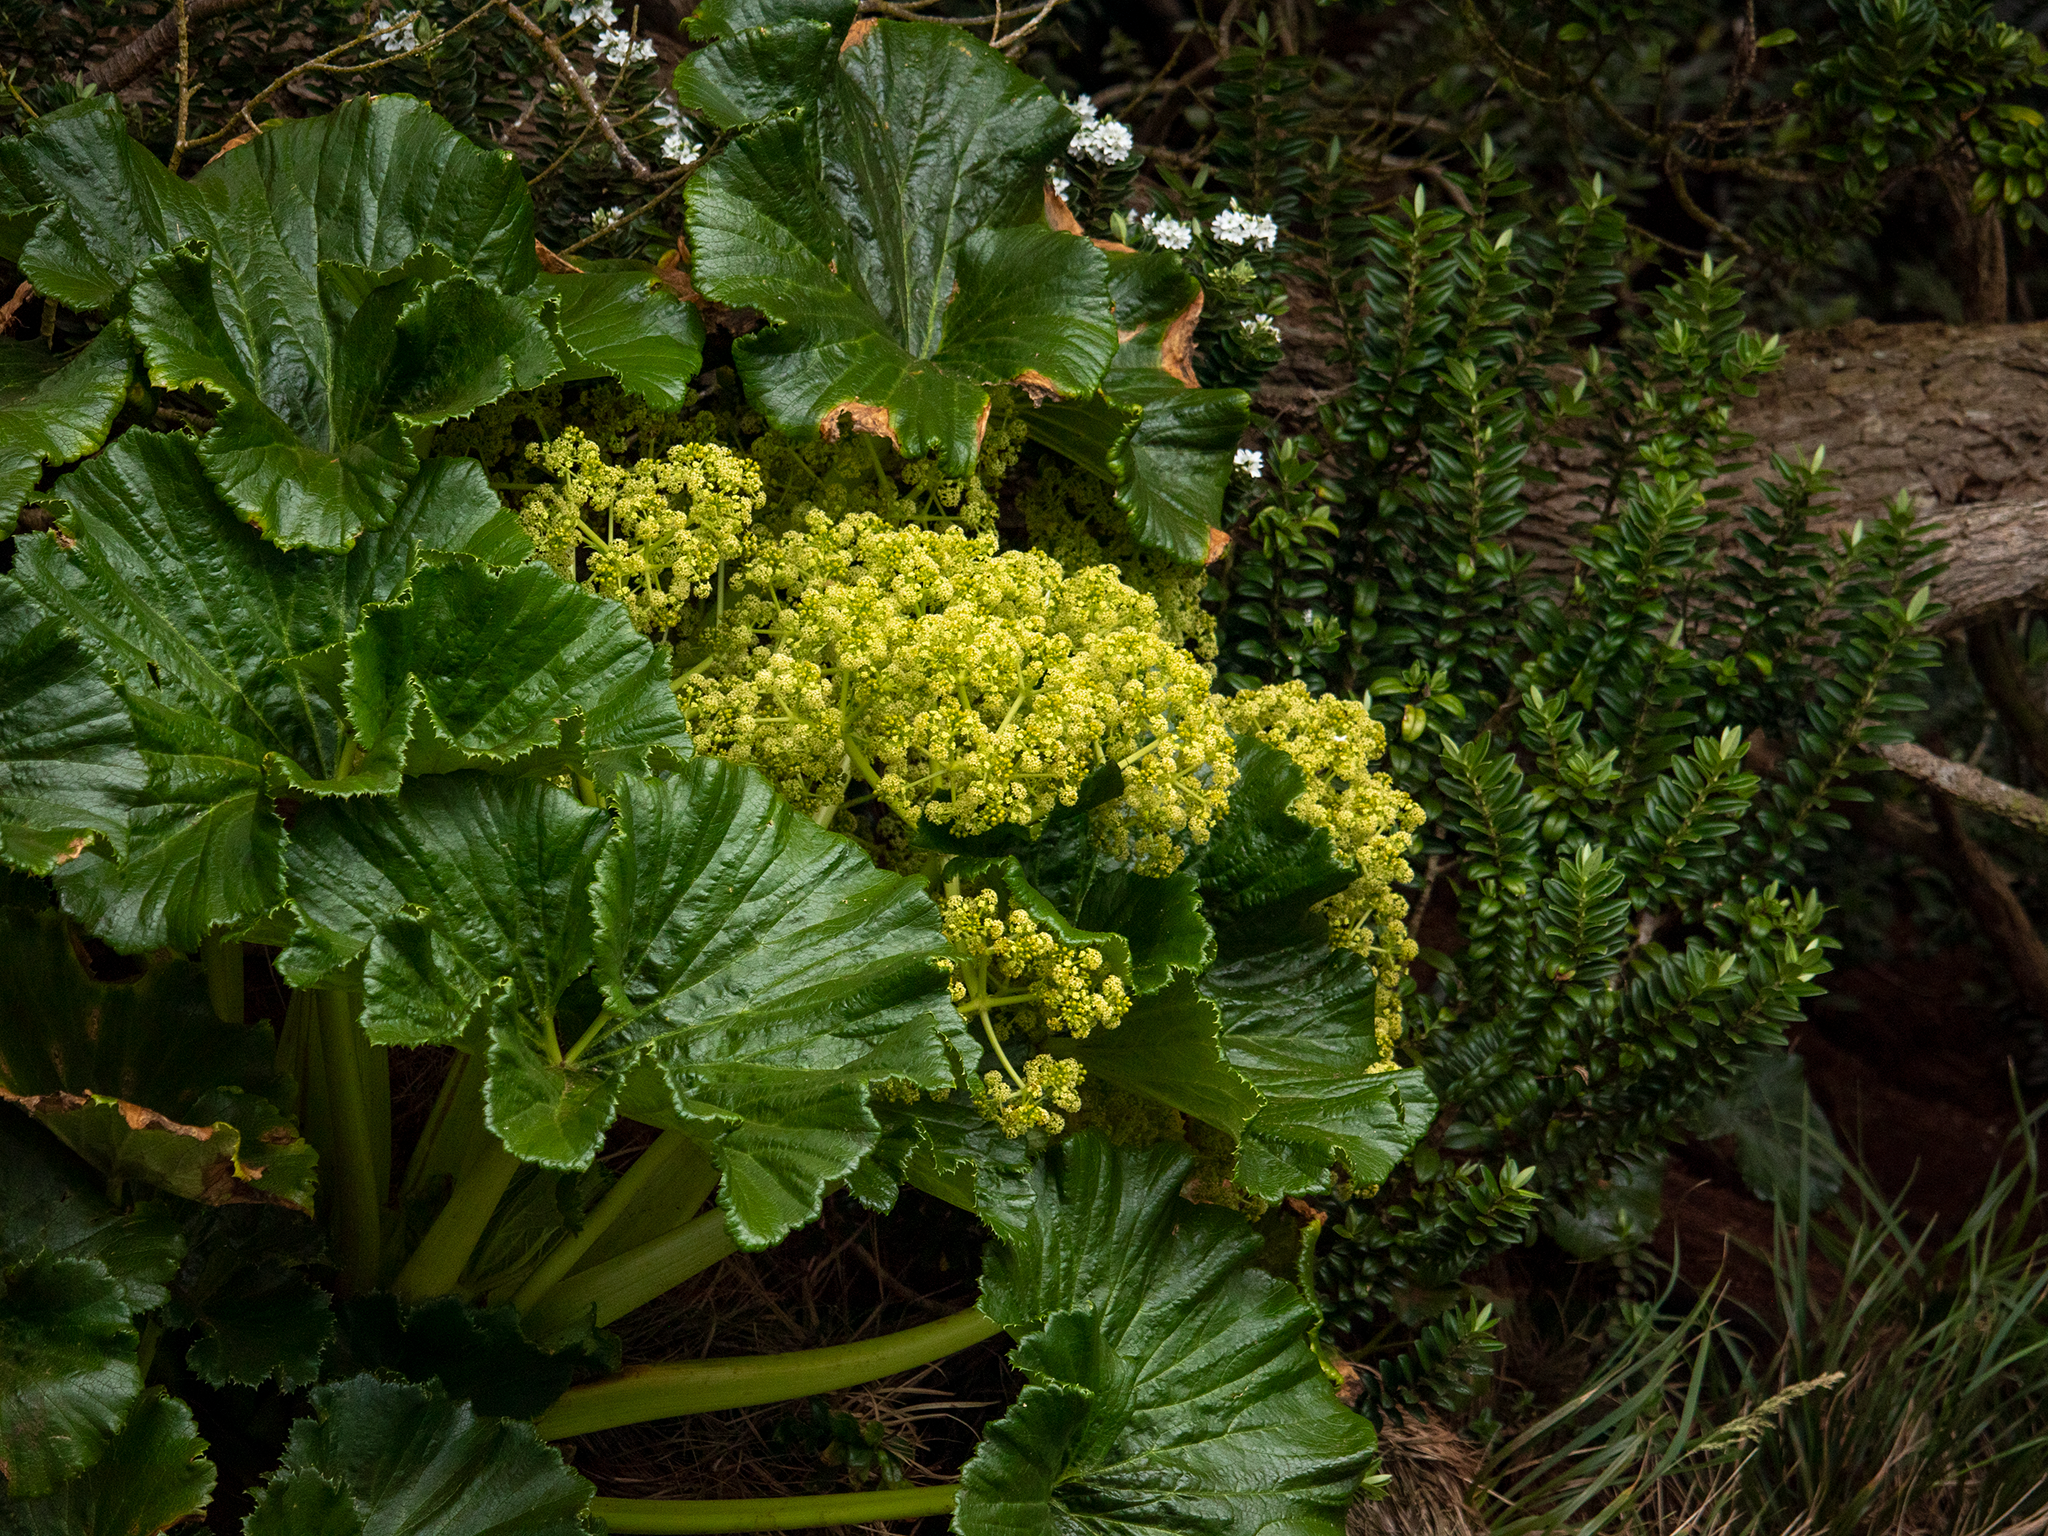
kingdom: Plantae
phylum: Tracheophyta
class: Magnoliopsida
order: Apiales
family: Apiaceae
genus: Azorella
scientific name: Azorella robusta
